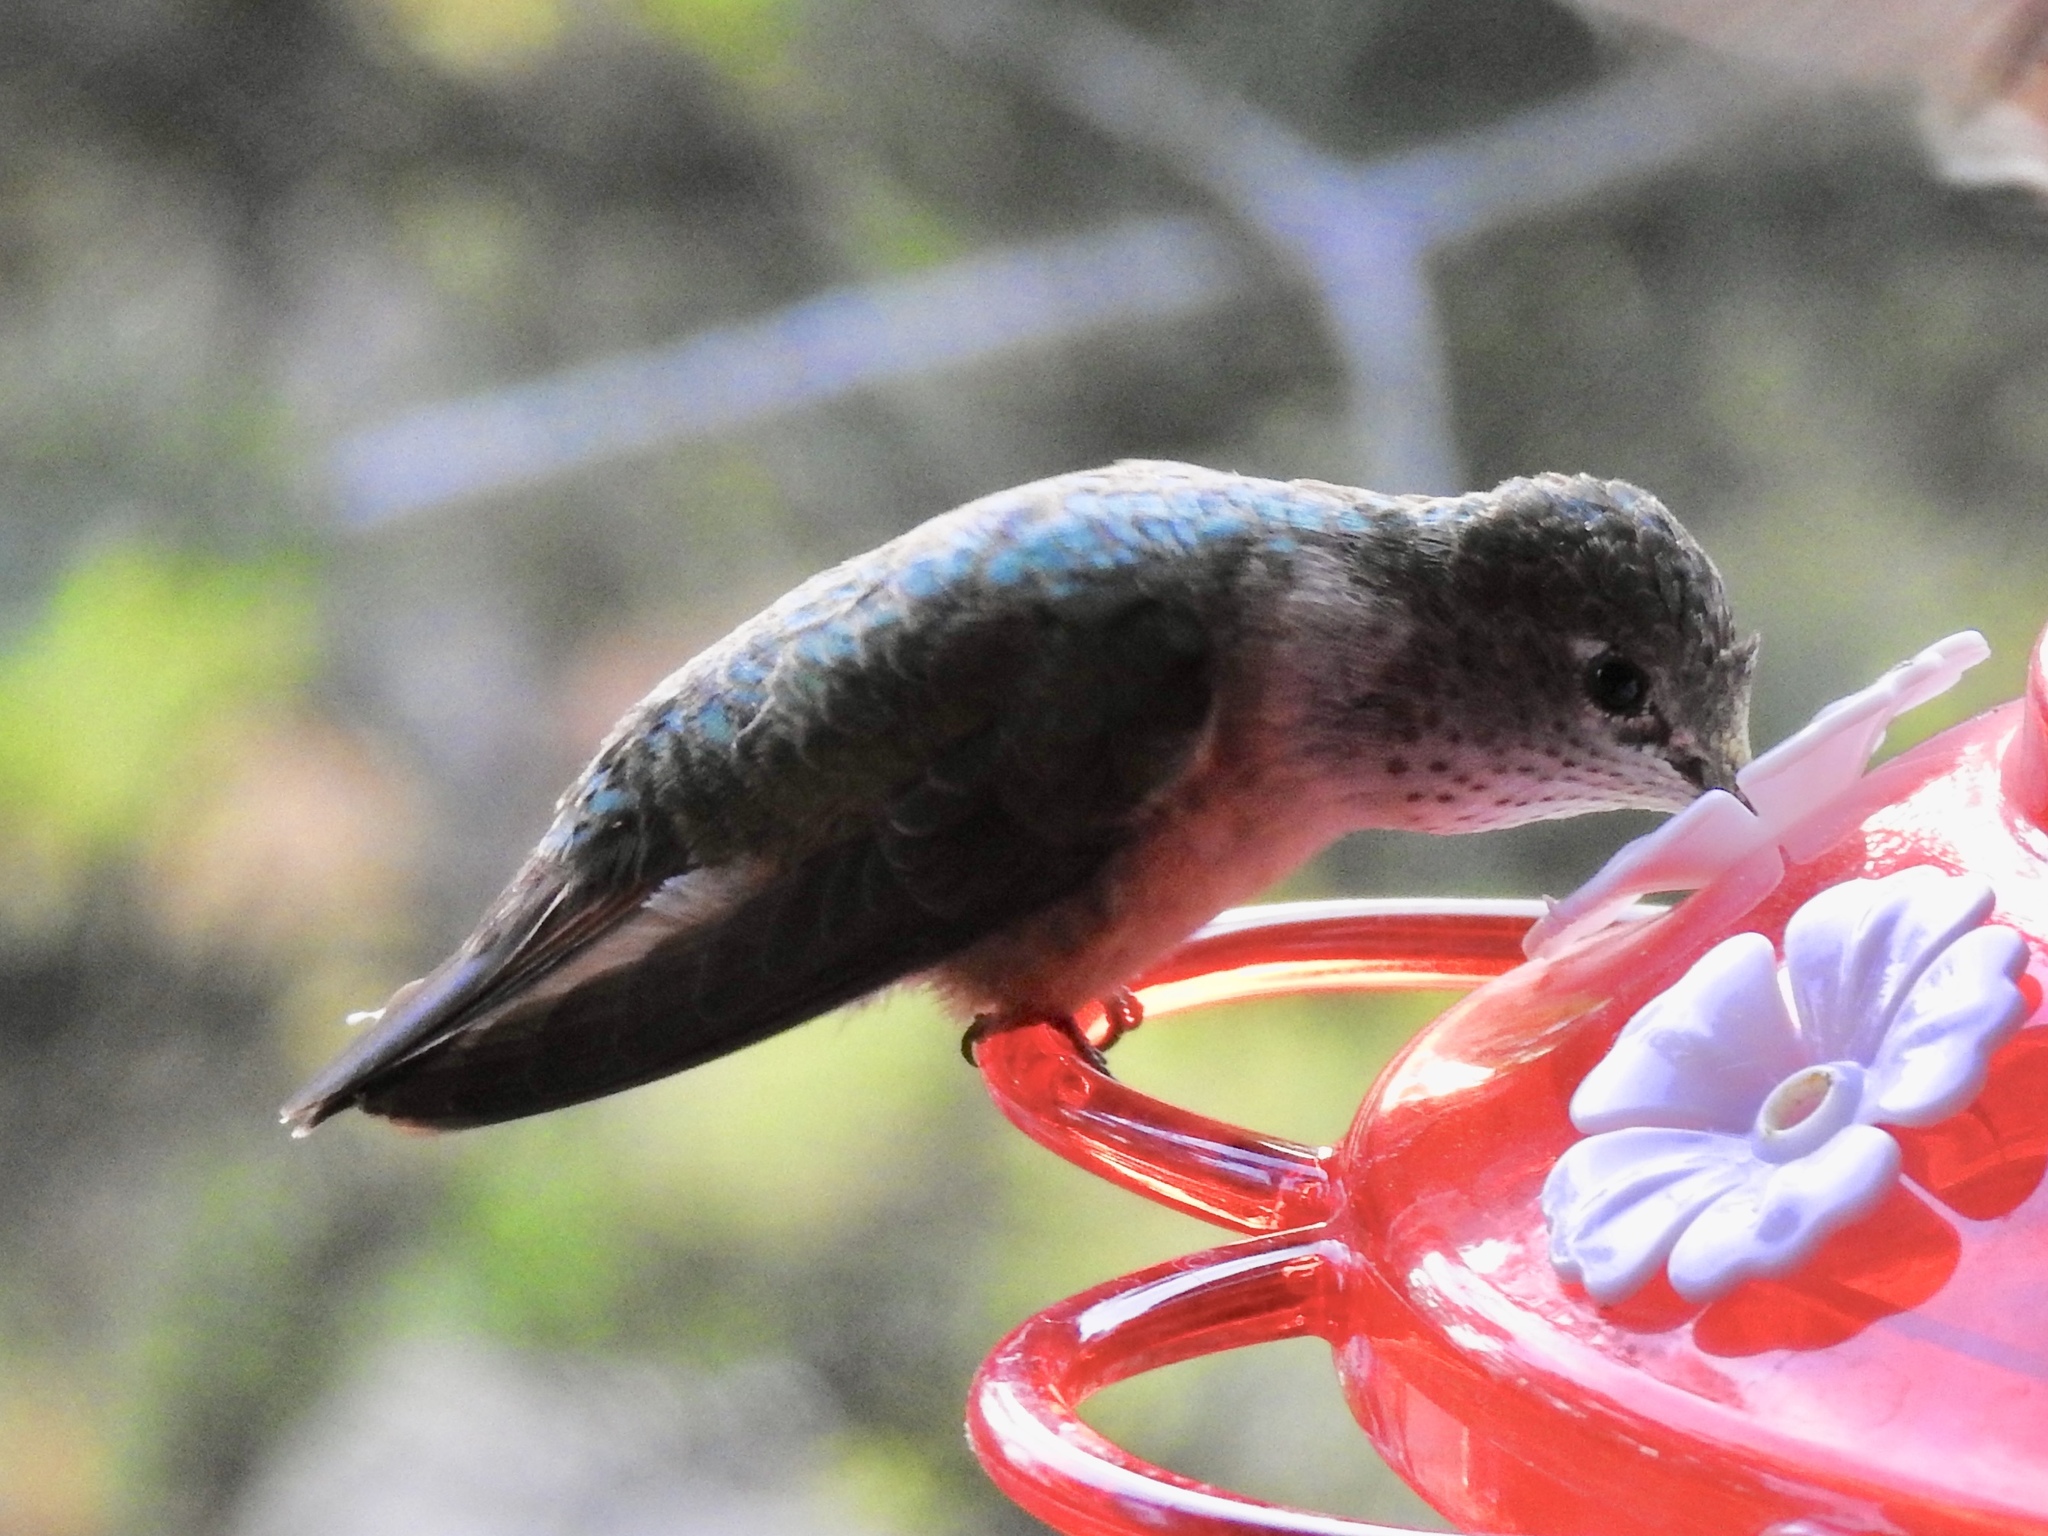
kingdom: Animalia
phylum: Chordata
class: Aves
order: Apodiformes
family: Trochilidae
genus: Selasphorus
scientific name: Selasphorus platycercus
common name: Broad-tailed hummingbird
